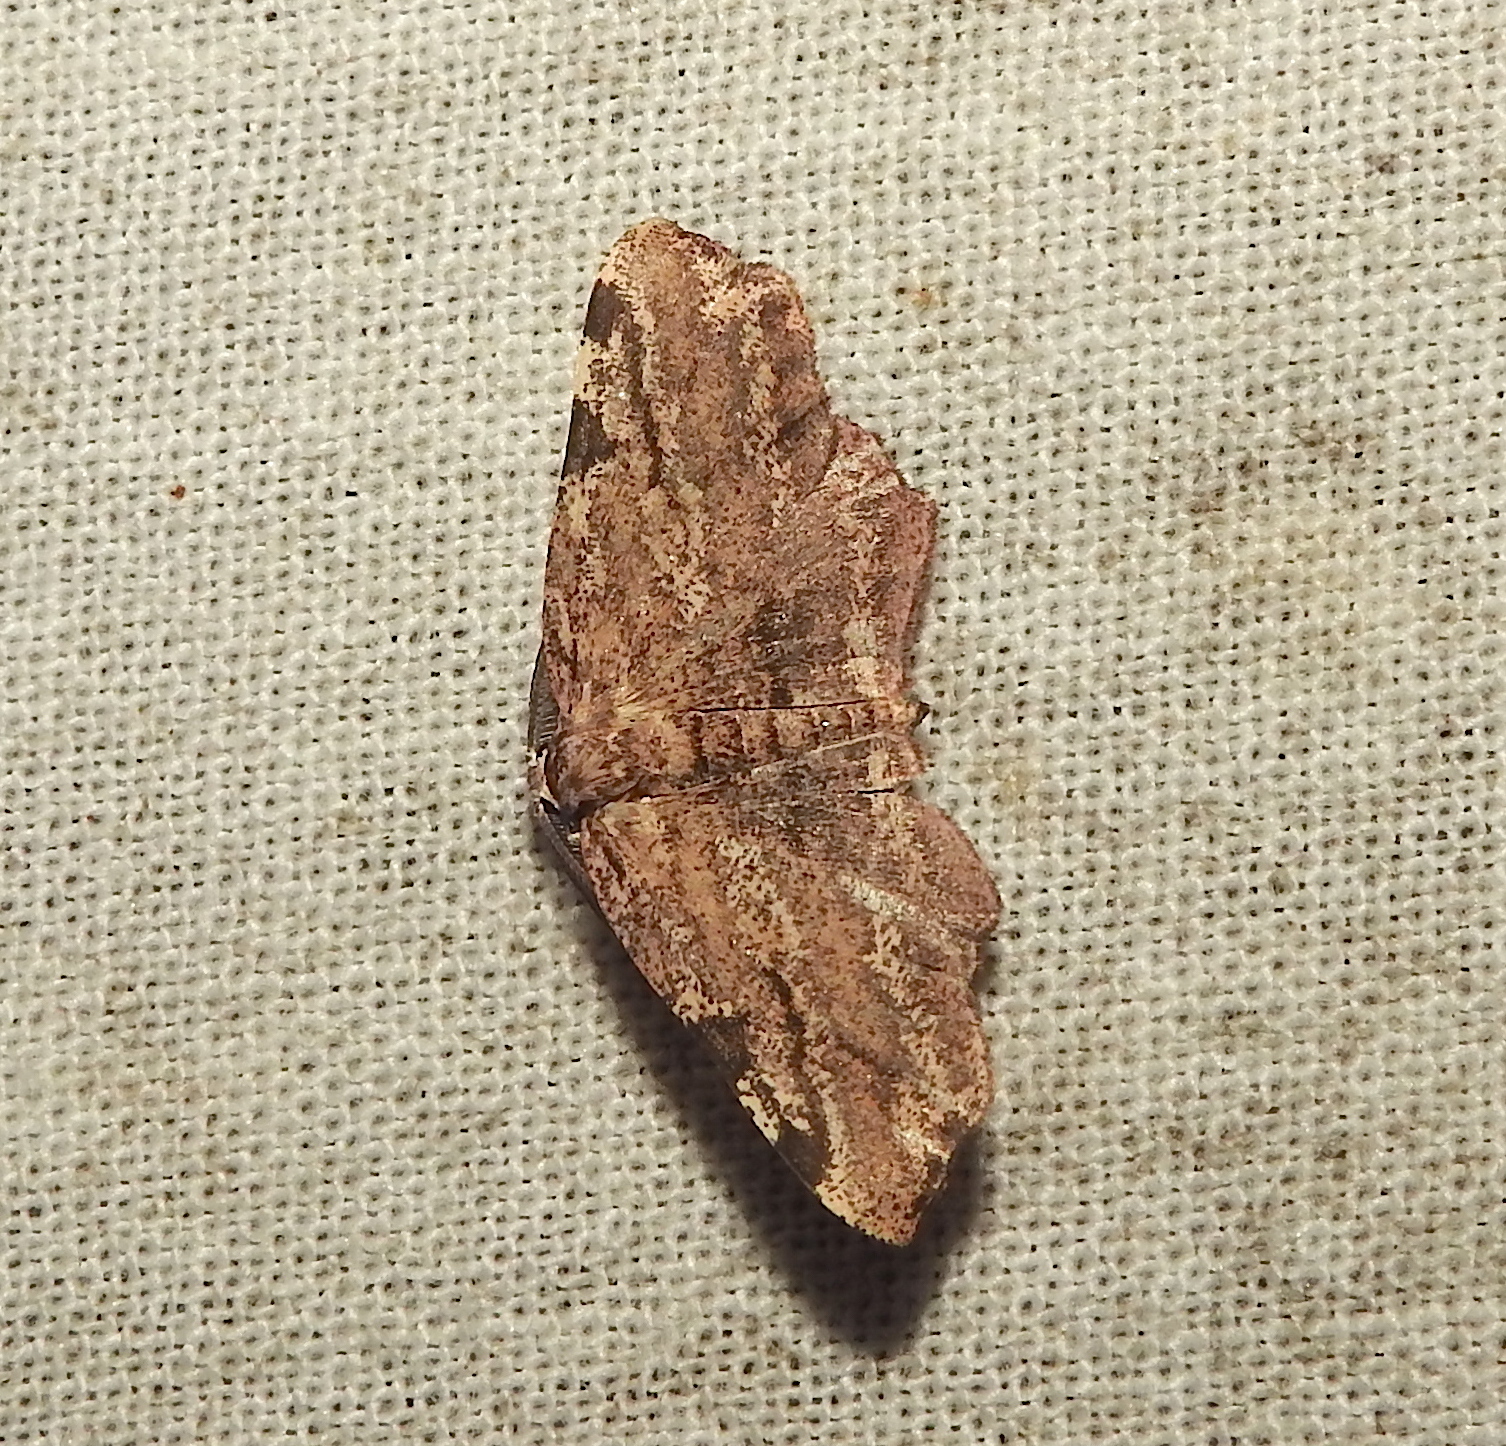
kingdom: Animalia
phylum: Arthropoda
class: Insecta
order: Lepidoptera
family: Geometridae
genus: Achrosis
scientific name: Achrosis intexta
